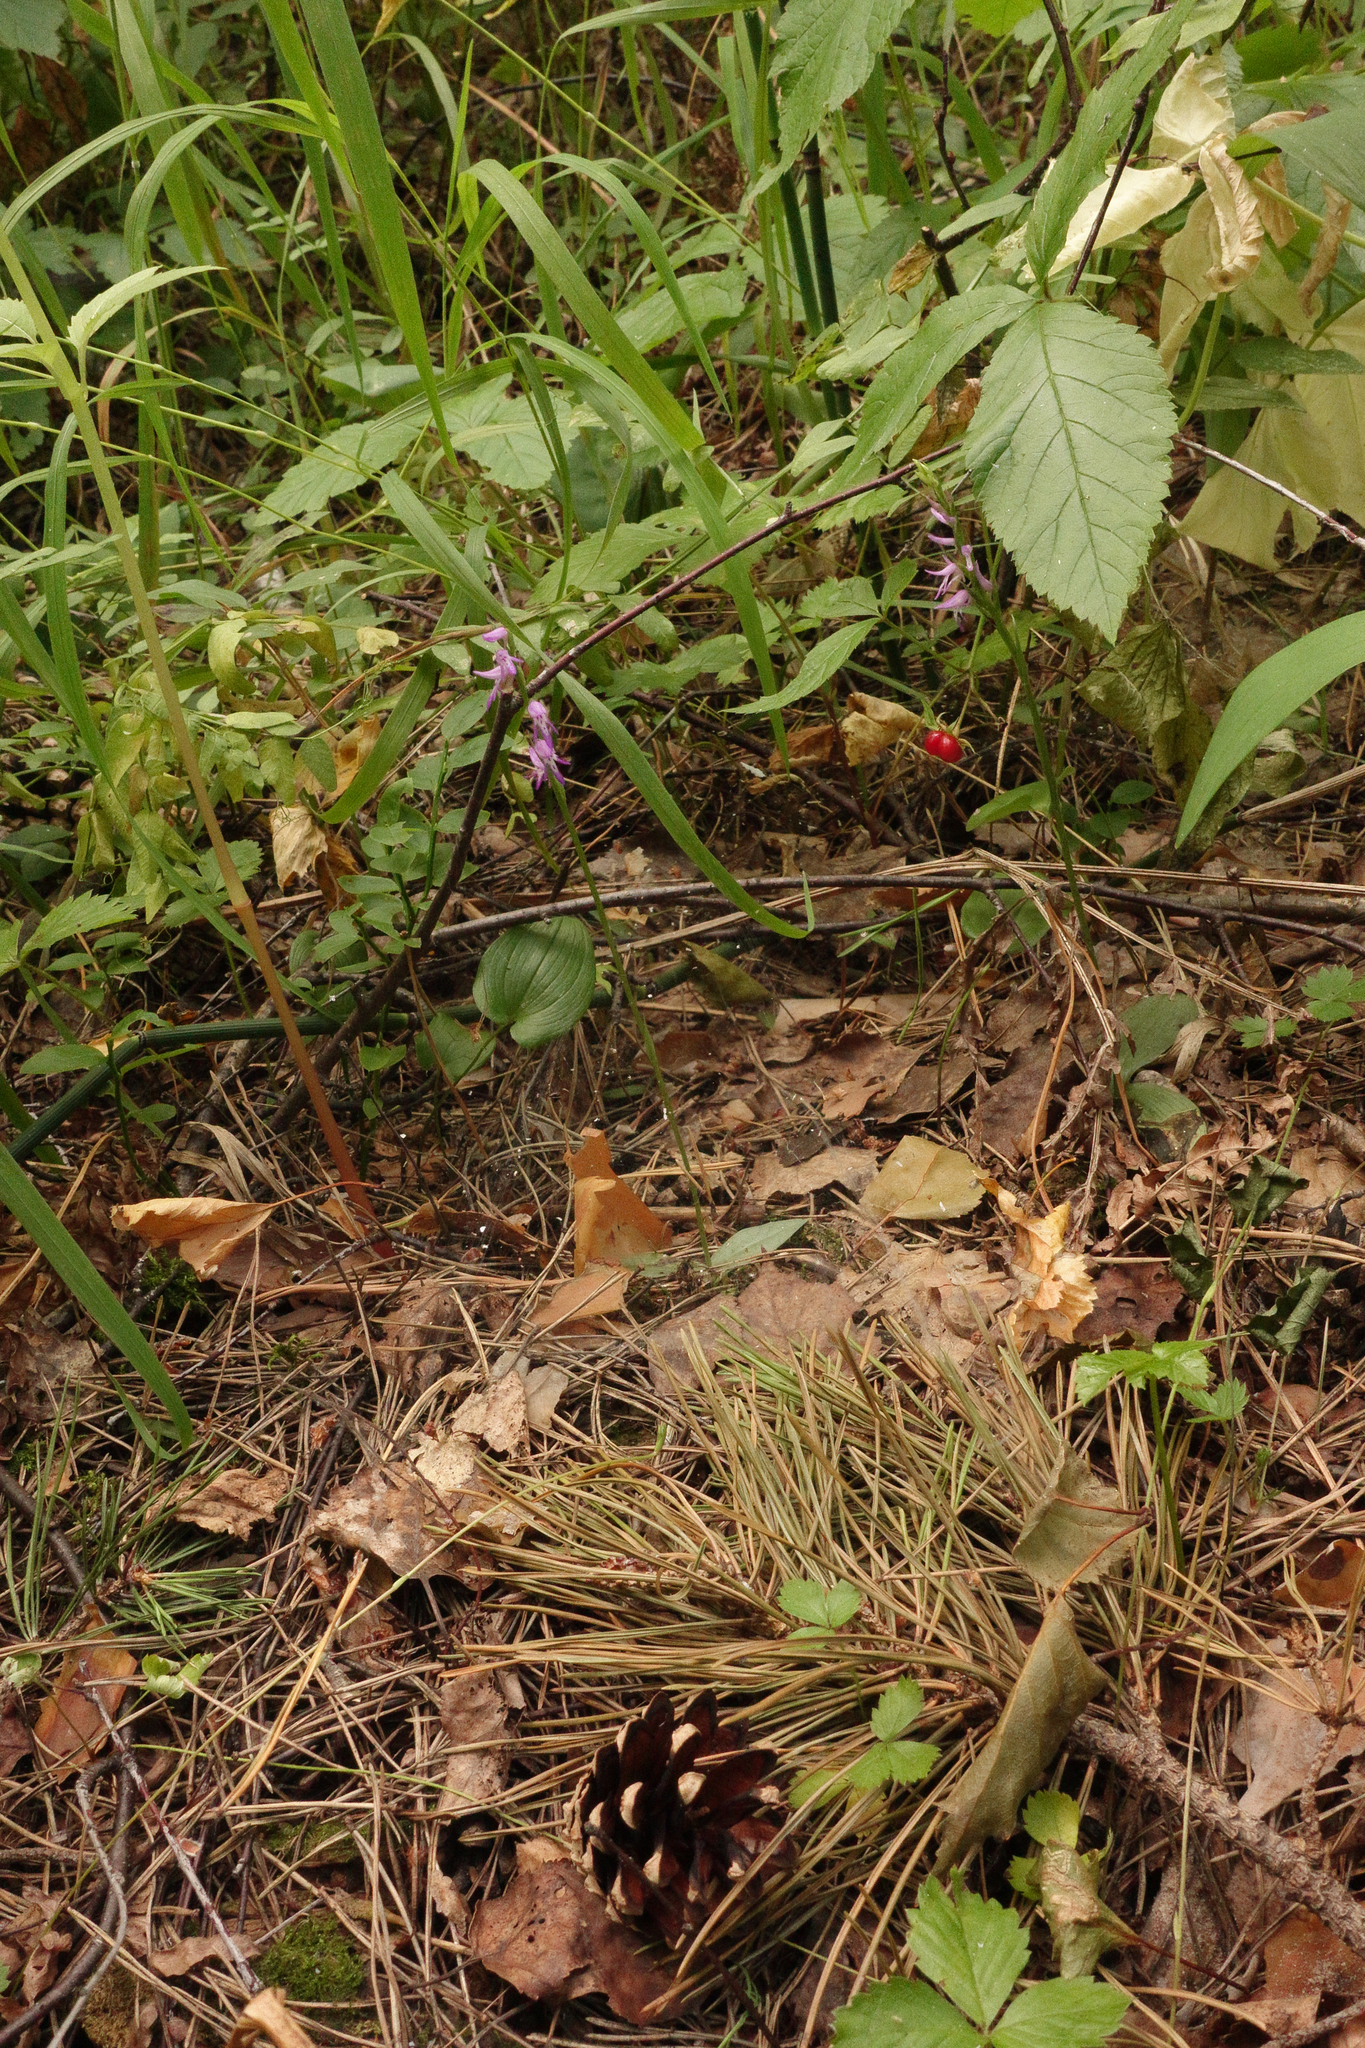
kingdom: Plantae
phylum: Tracheophyta
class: Liliopsida
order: Asparagales
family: Orchidaceae
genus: Hemipilia
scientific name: Hemipilia cucullata
